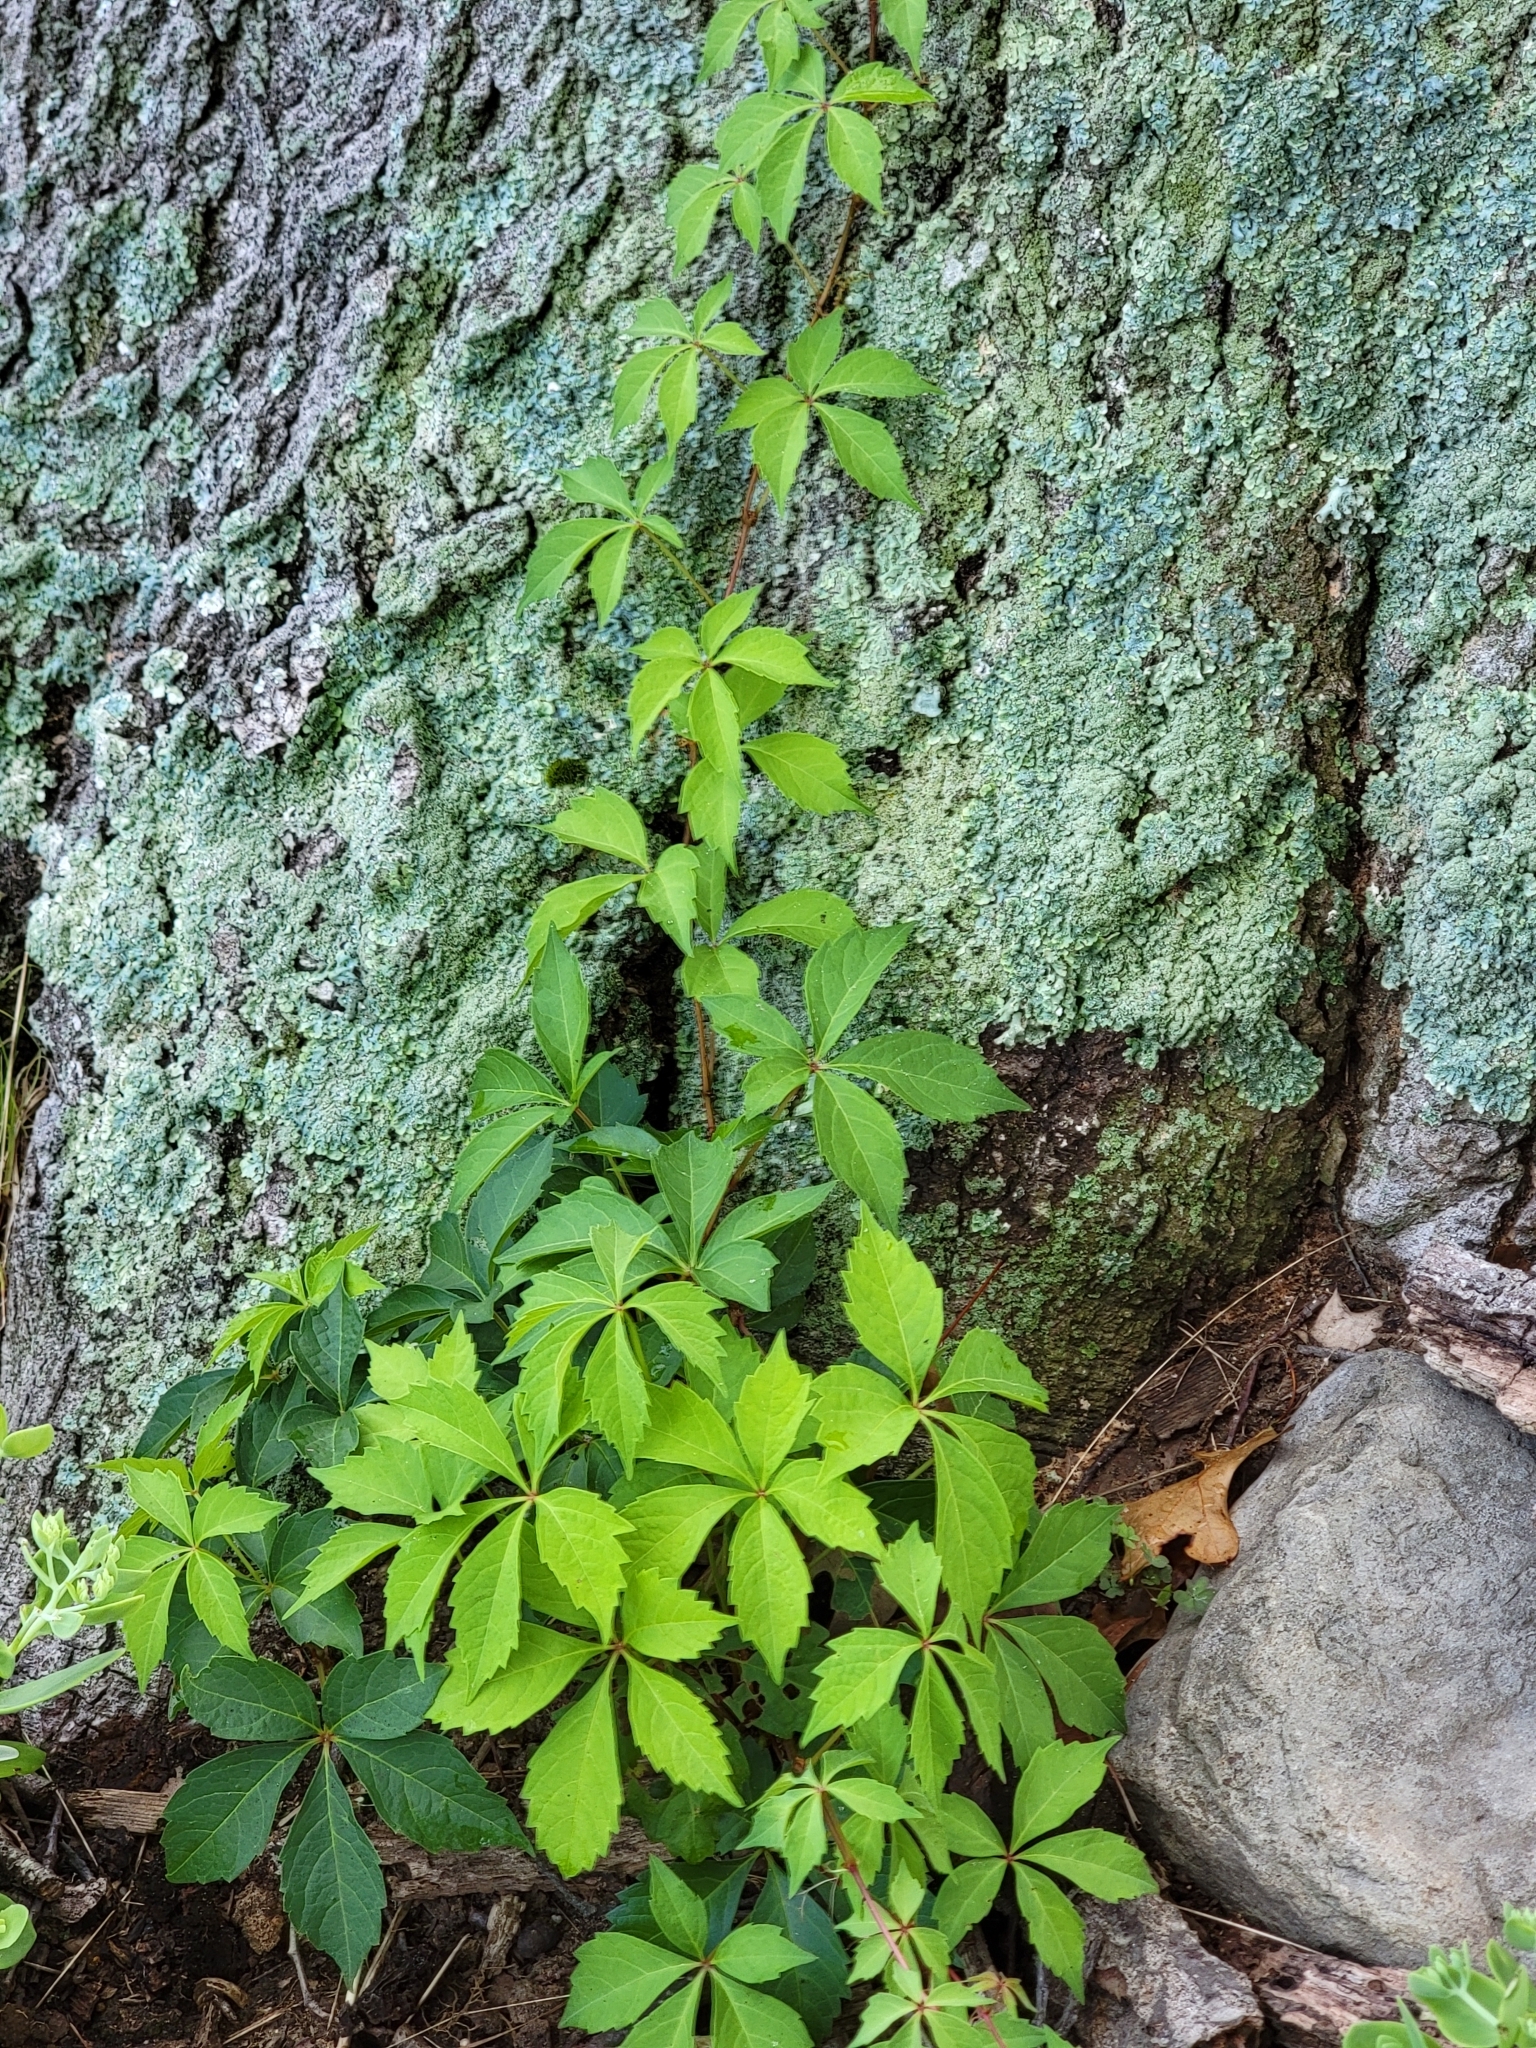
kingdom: Plantae
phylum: Tracheophyta
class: Magnoliopsida
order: Vitales
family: Vitaceae
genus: Parthenocissus
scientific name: Parthenocissus quinquefolia
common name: Virginia-creeper
